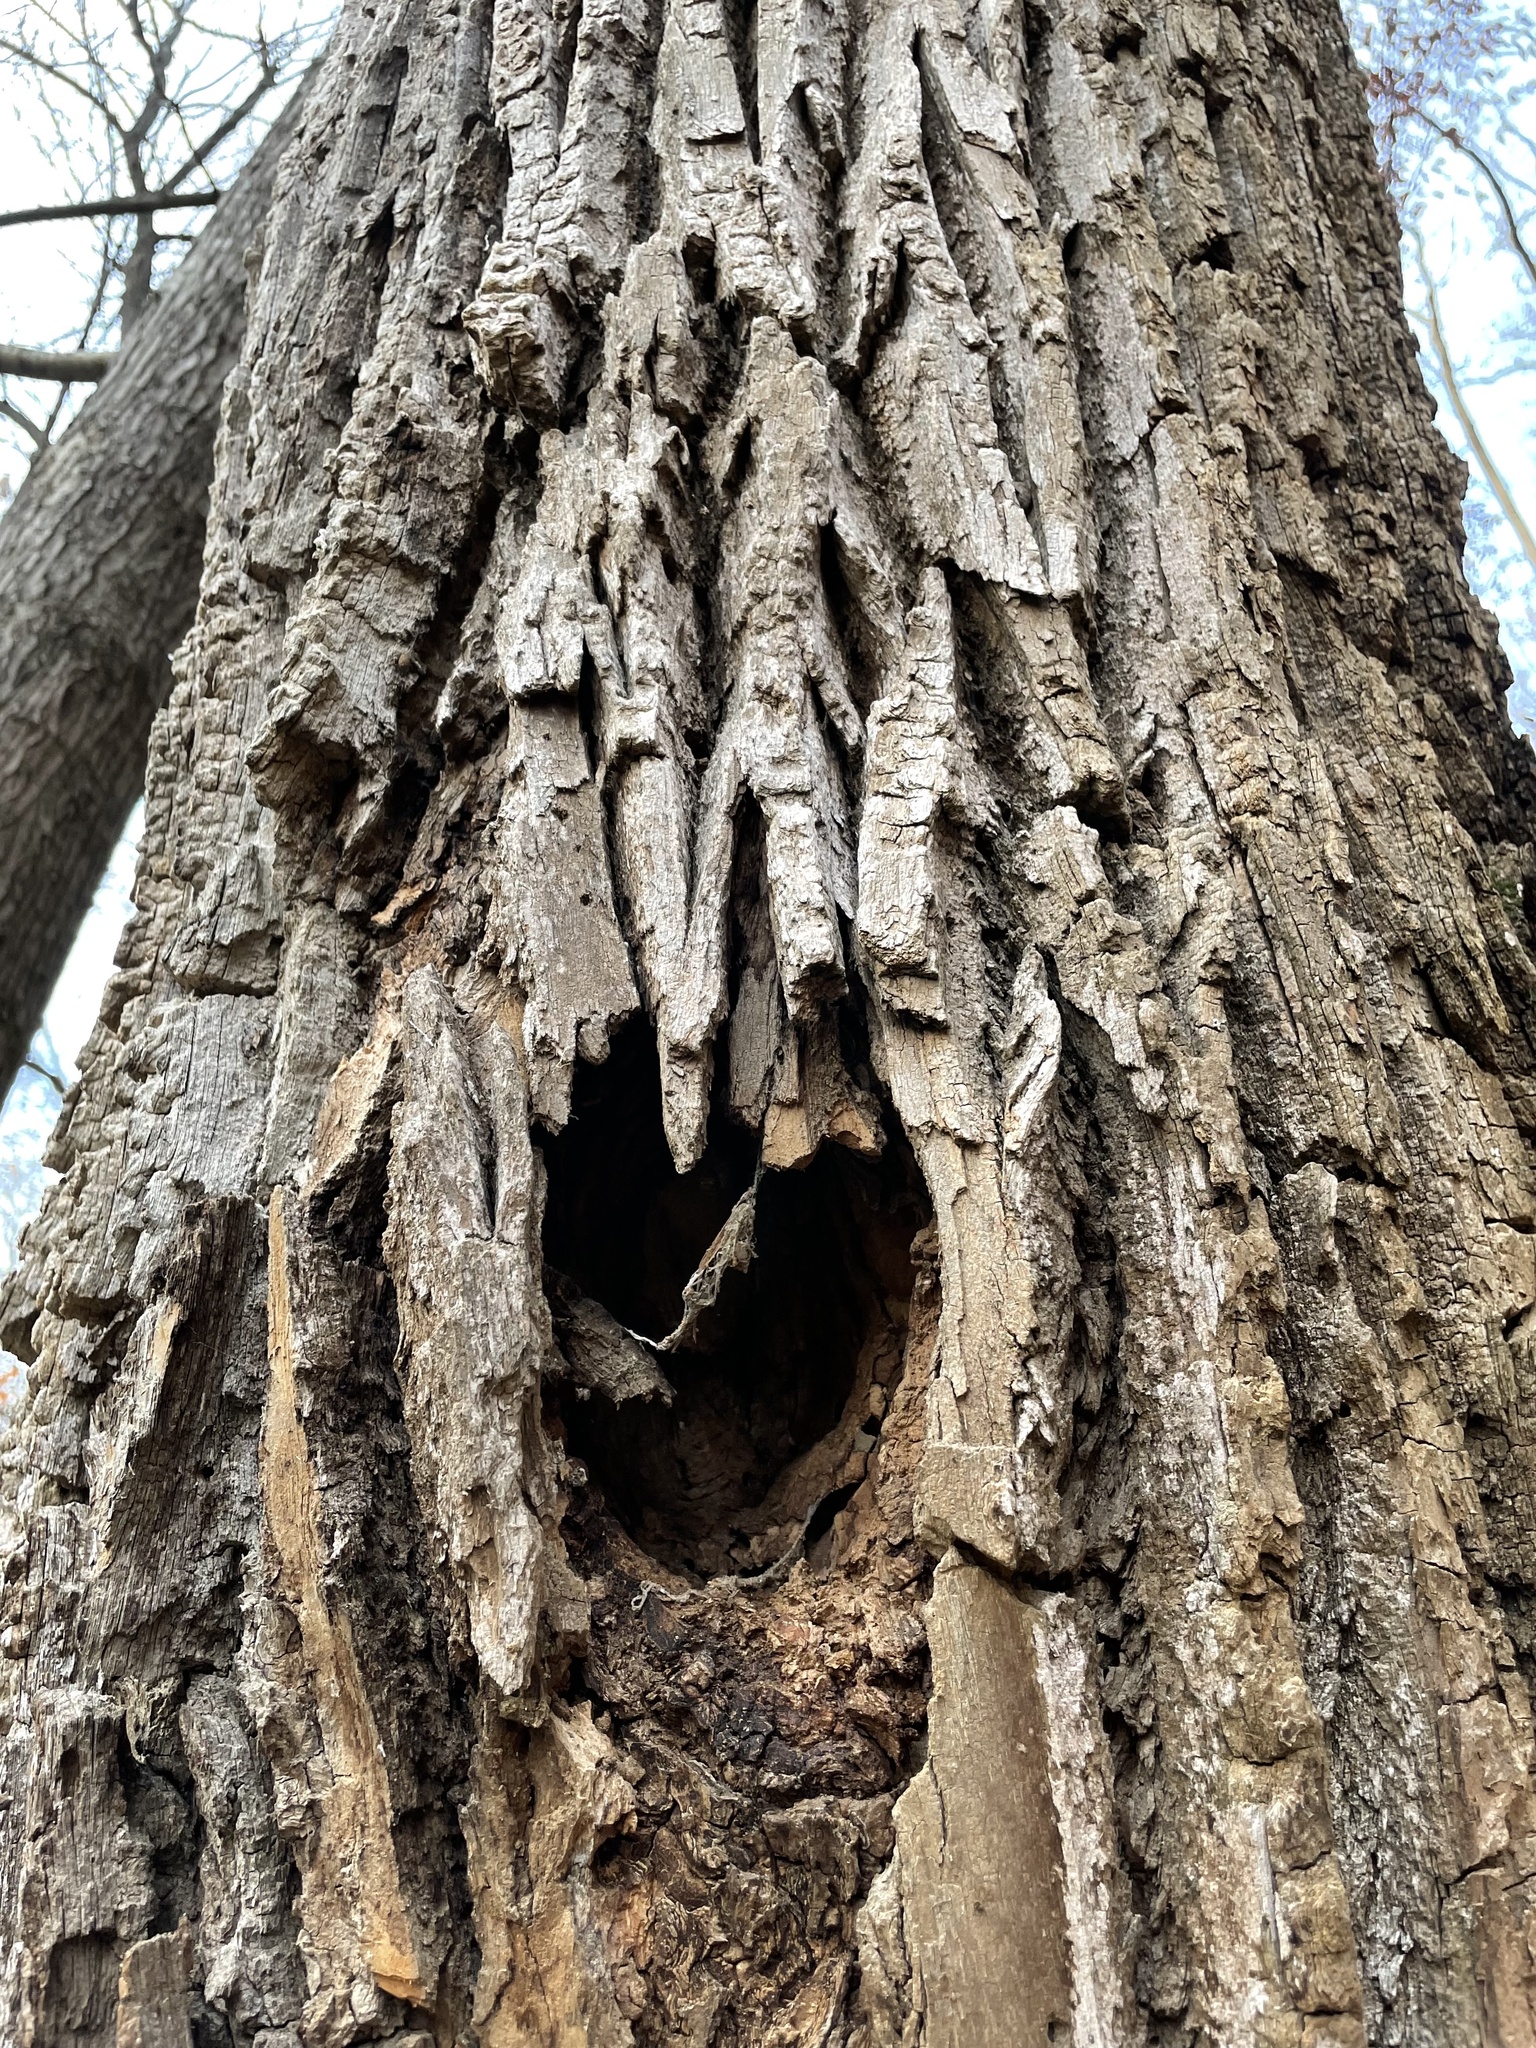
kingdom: Plantae
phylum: Tracheophyta
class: Magnoliopsida
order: Ericales
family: Ebenaceae
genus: Diospyros
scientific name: Diospyros virginiana
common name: Persimmon
